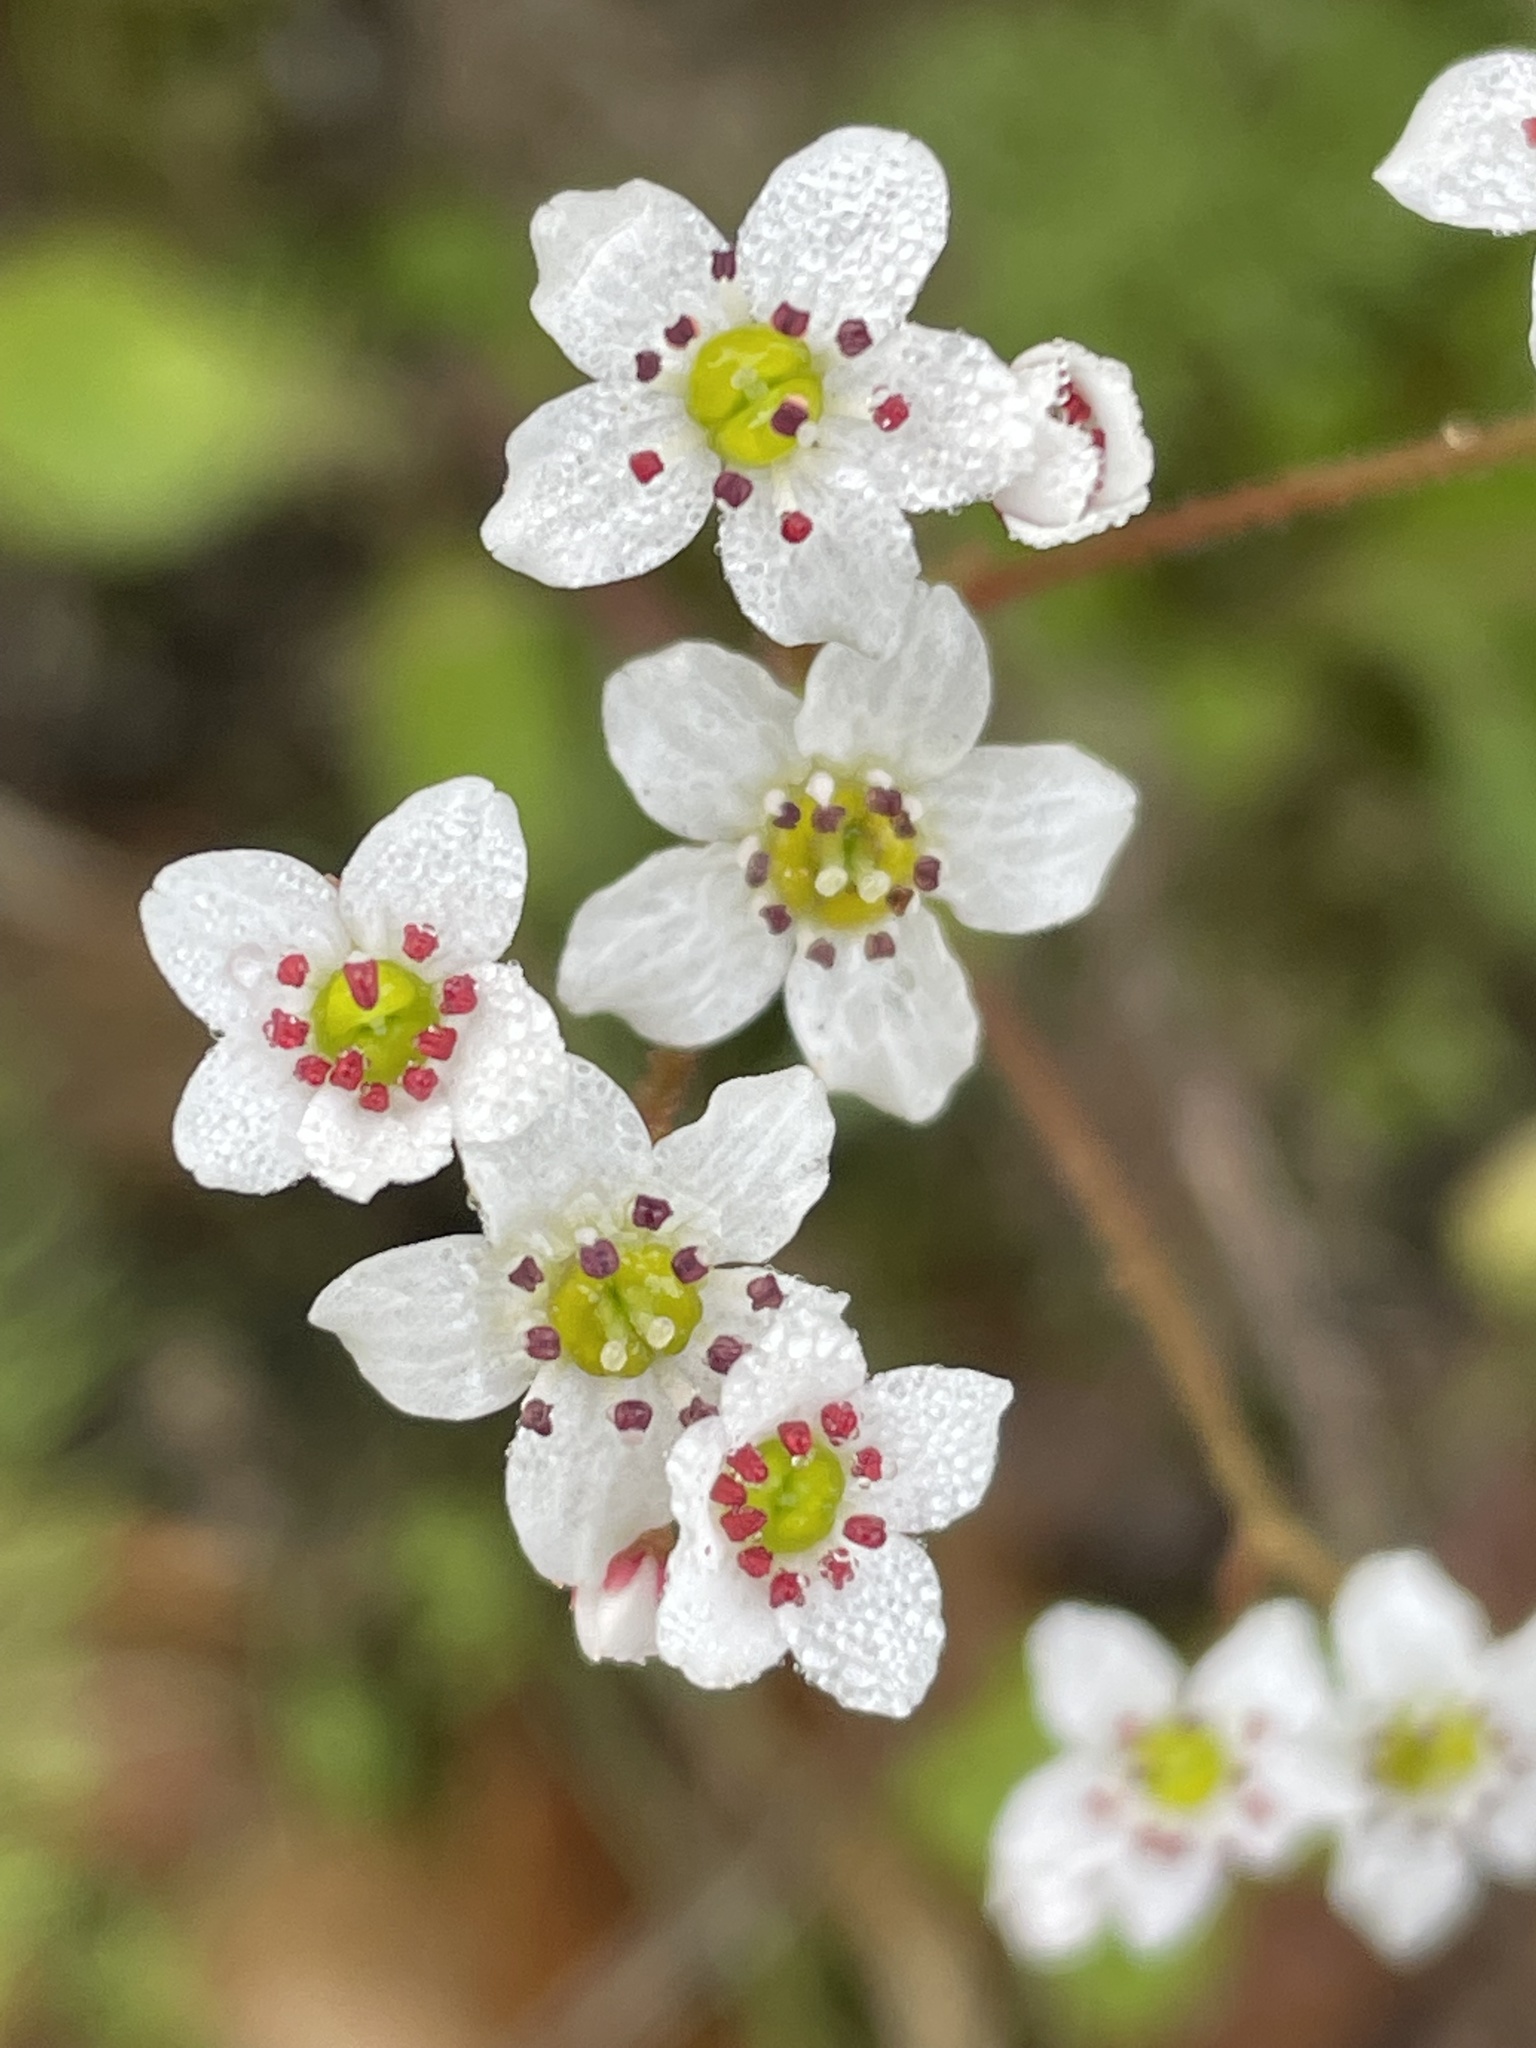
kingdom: Plantae
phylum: Tracheophyta
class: Magnoliopsida
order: Saxifragales
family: Saxifragaceae
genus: Micranthes
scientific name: Micranthes californica
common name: California saxifrage
